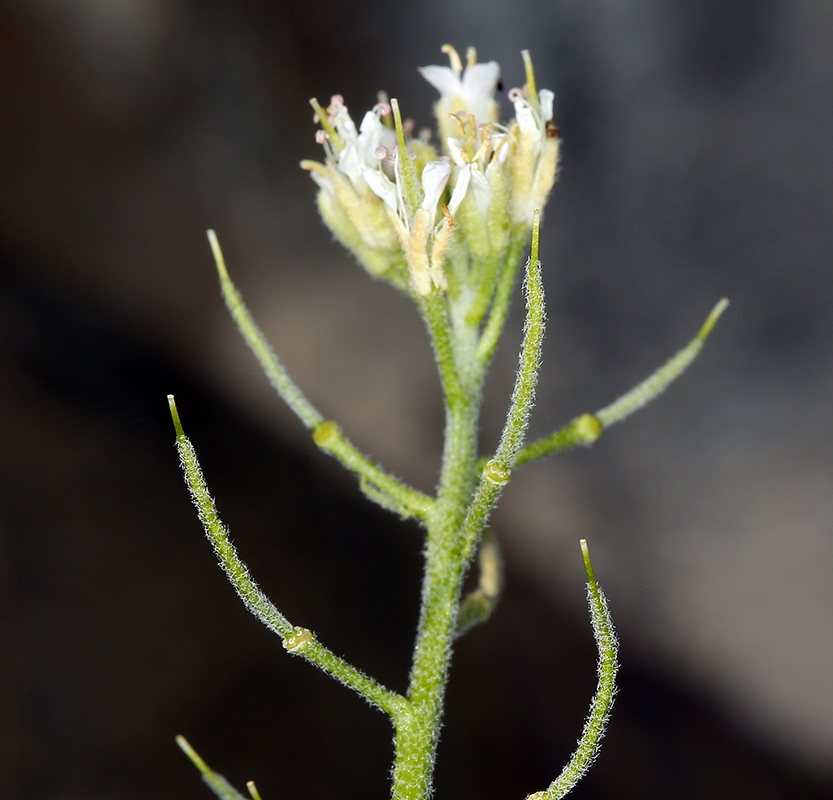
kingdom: Plantae
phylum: Tracheophyta
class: Magnoliopsida
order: Brassicales
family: Brassicaceae
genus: Halimolobos
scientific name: Halimolobos jaegeri
